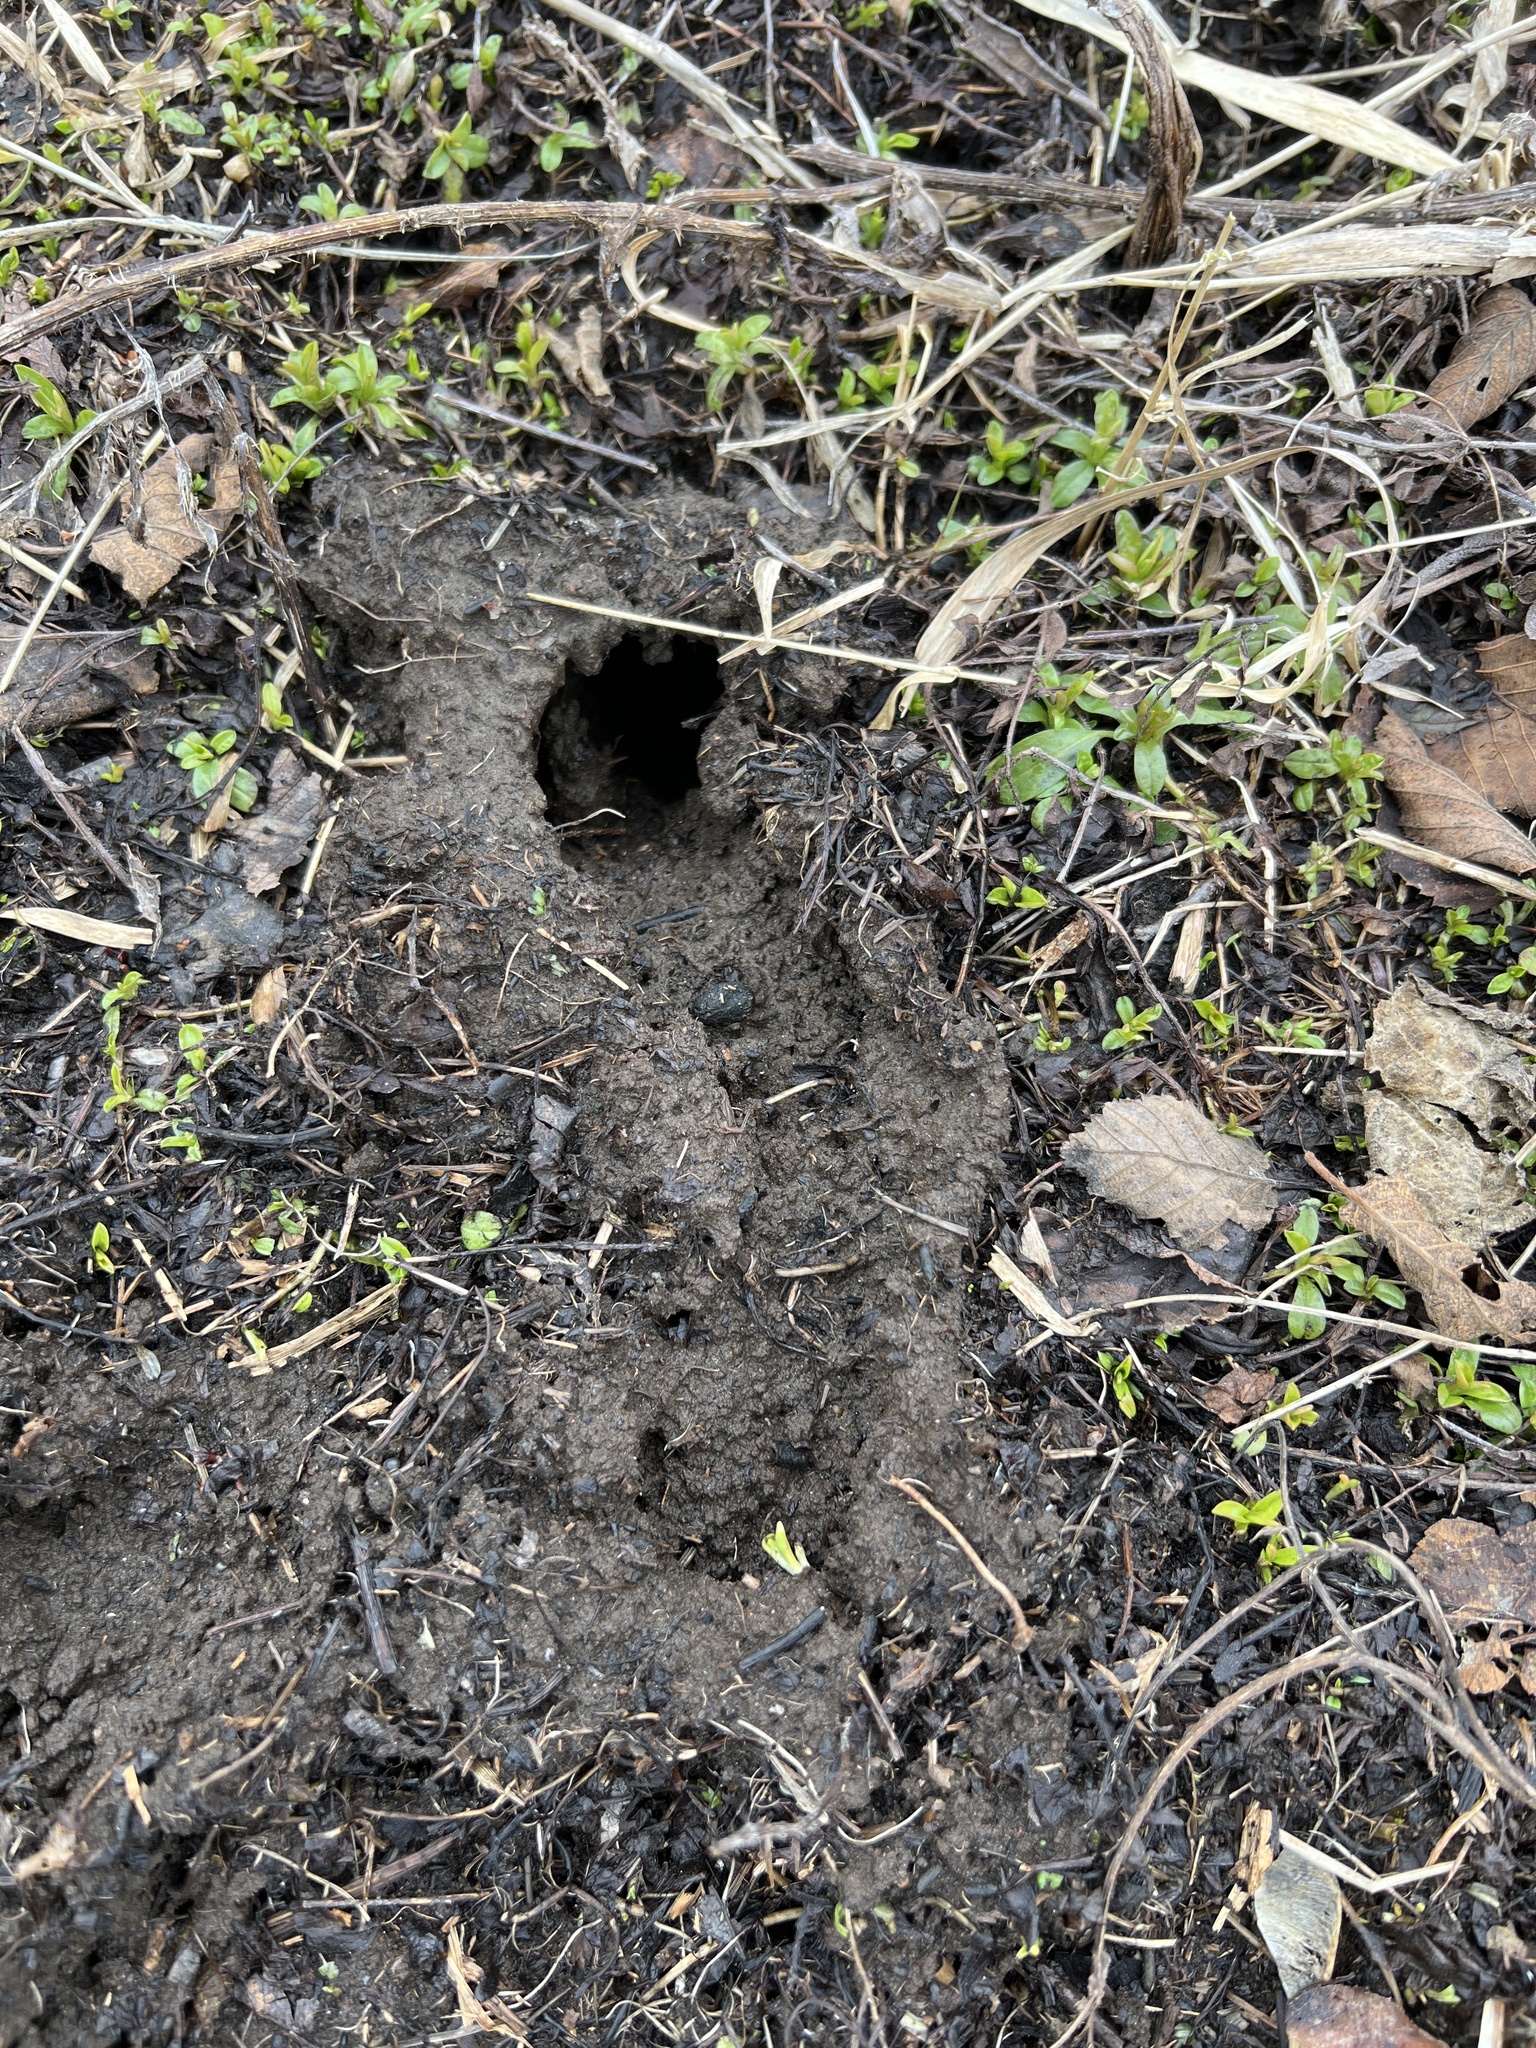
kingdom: Animalia
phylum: Chordata
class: Mammalia
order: Soricomorpha
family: Talpidae
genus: Condylura
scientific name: Condylura cristata
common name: Star-nosed mole
